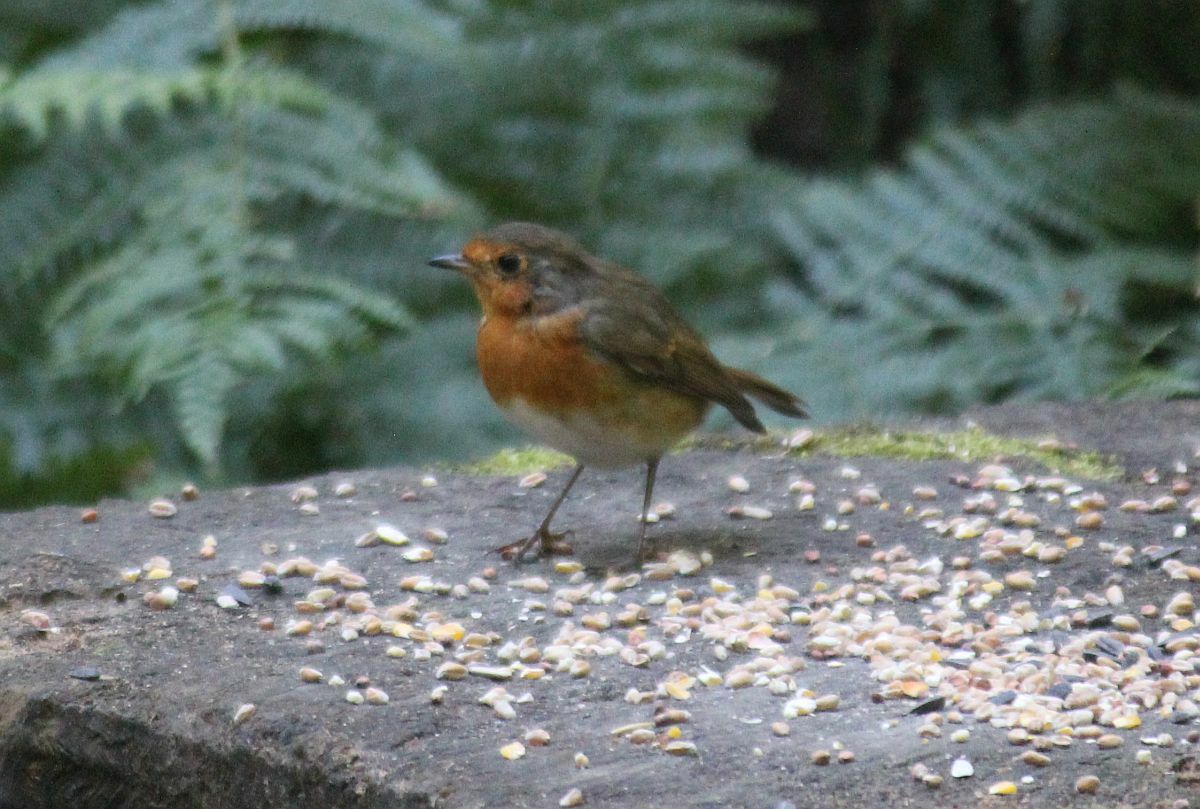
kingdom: Animalia
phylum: Chordata
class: Aves
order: Passeriformes
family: Muscicapidae
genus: Erithacus
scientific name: Erithacus rubecula
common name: European robin
